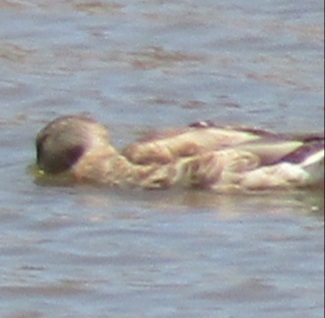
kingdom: Animalia
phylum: Chordata
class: Aves
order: Anseriformes
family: Anatidae
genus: Mareca
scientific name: Mareca strepera
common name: Gadwall
